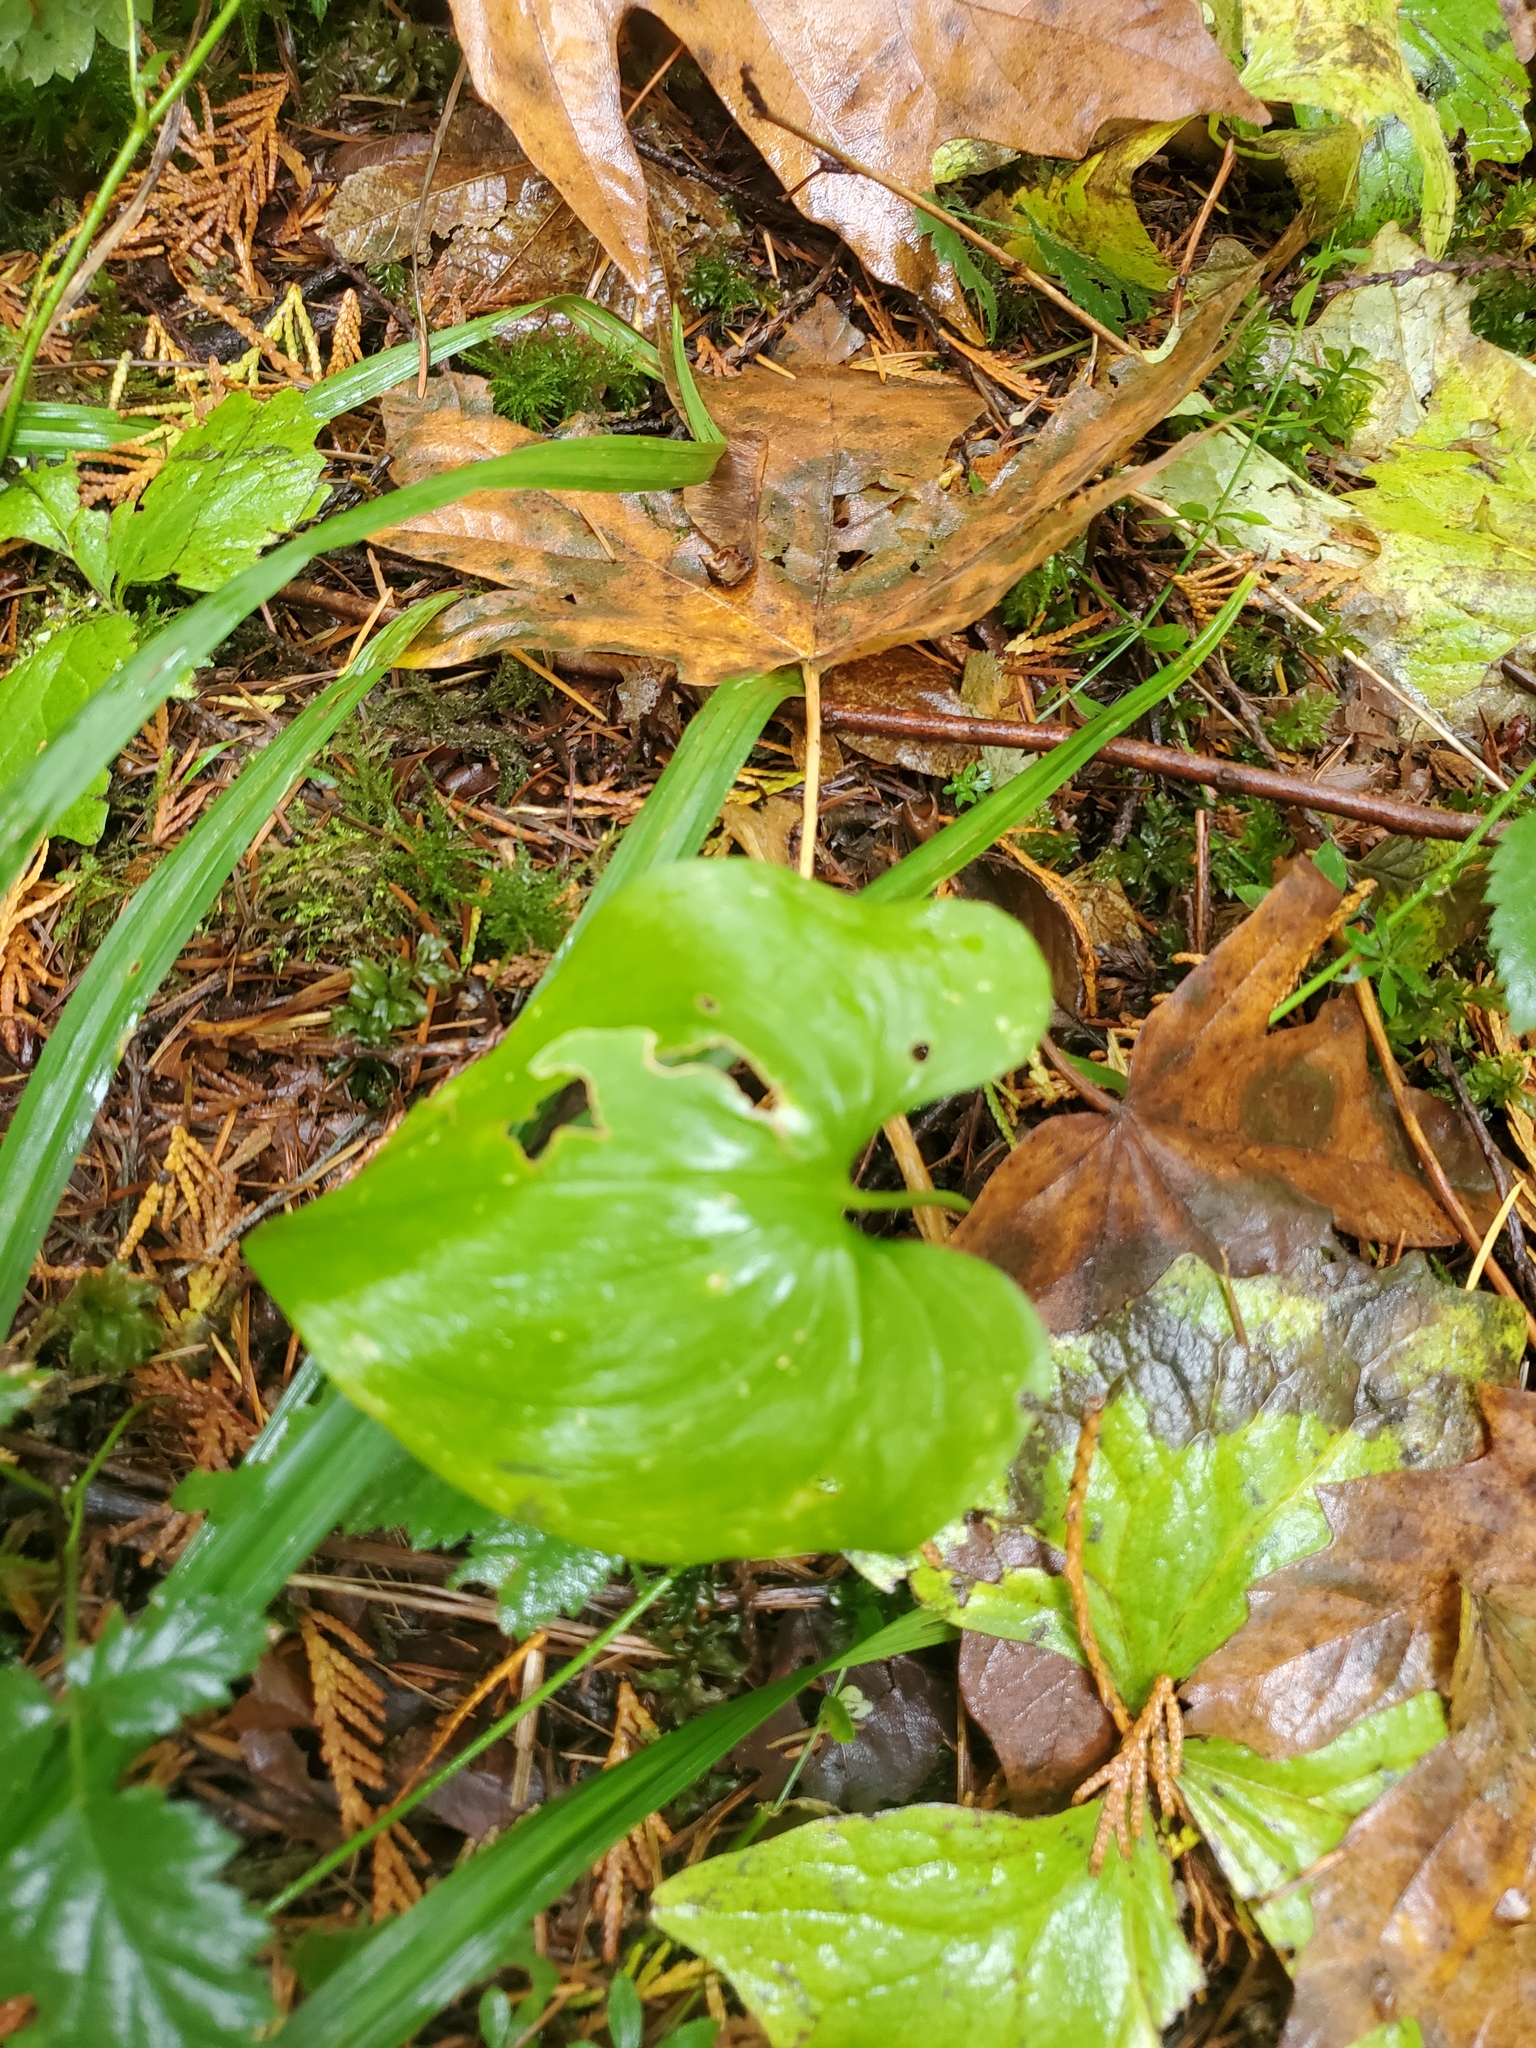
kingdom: Plantae
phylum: Tracheophyta
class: Liliopsida
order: Asparagales
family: Asparagaceae
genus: Maianthemum
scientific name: Maianthemum dilatatum
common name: False lily-of-the-valley
